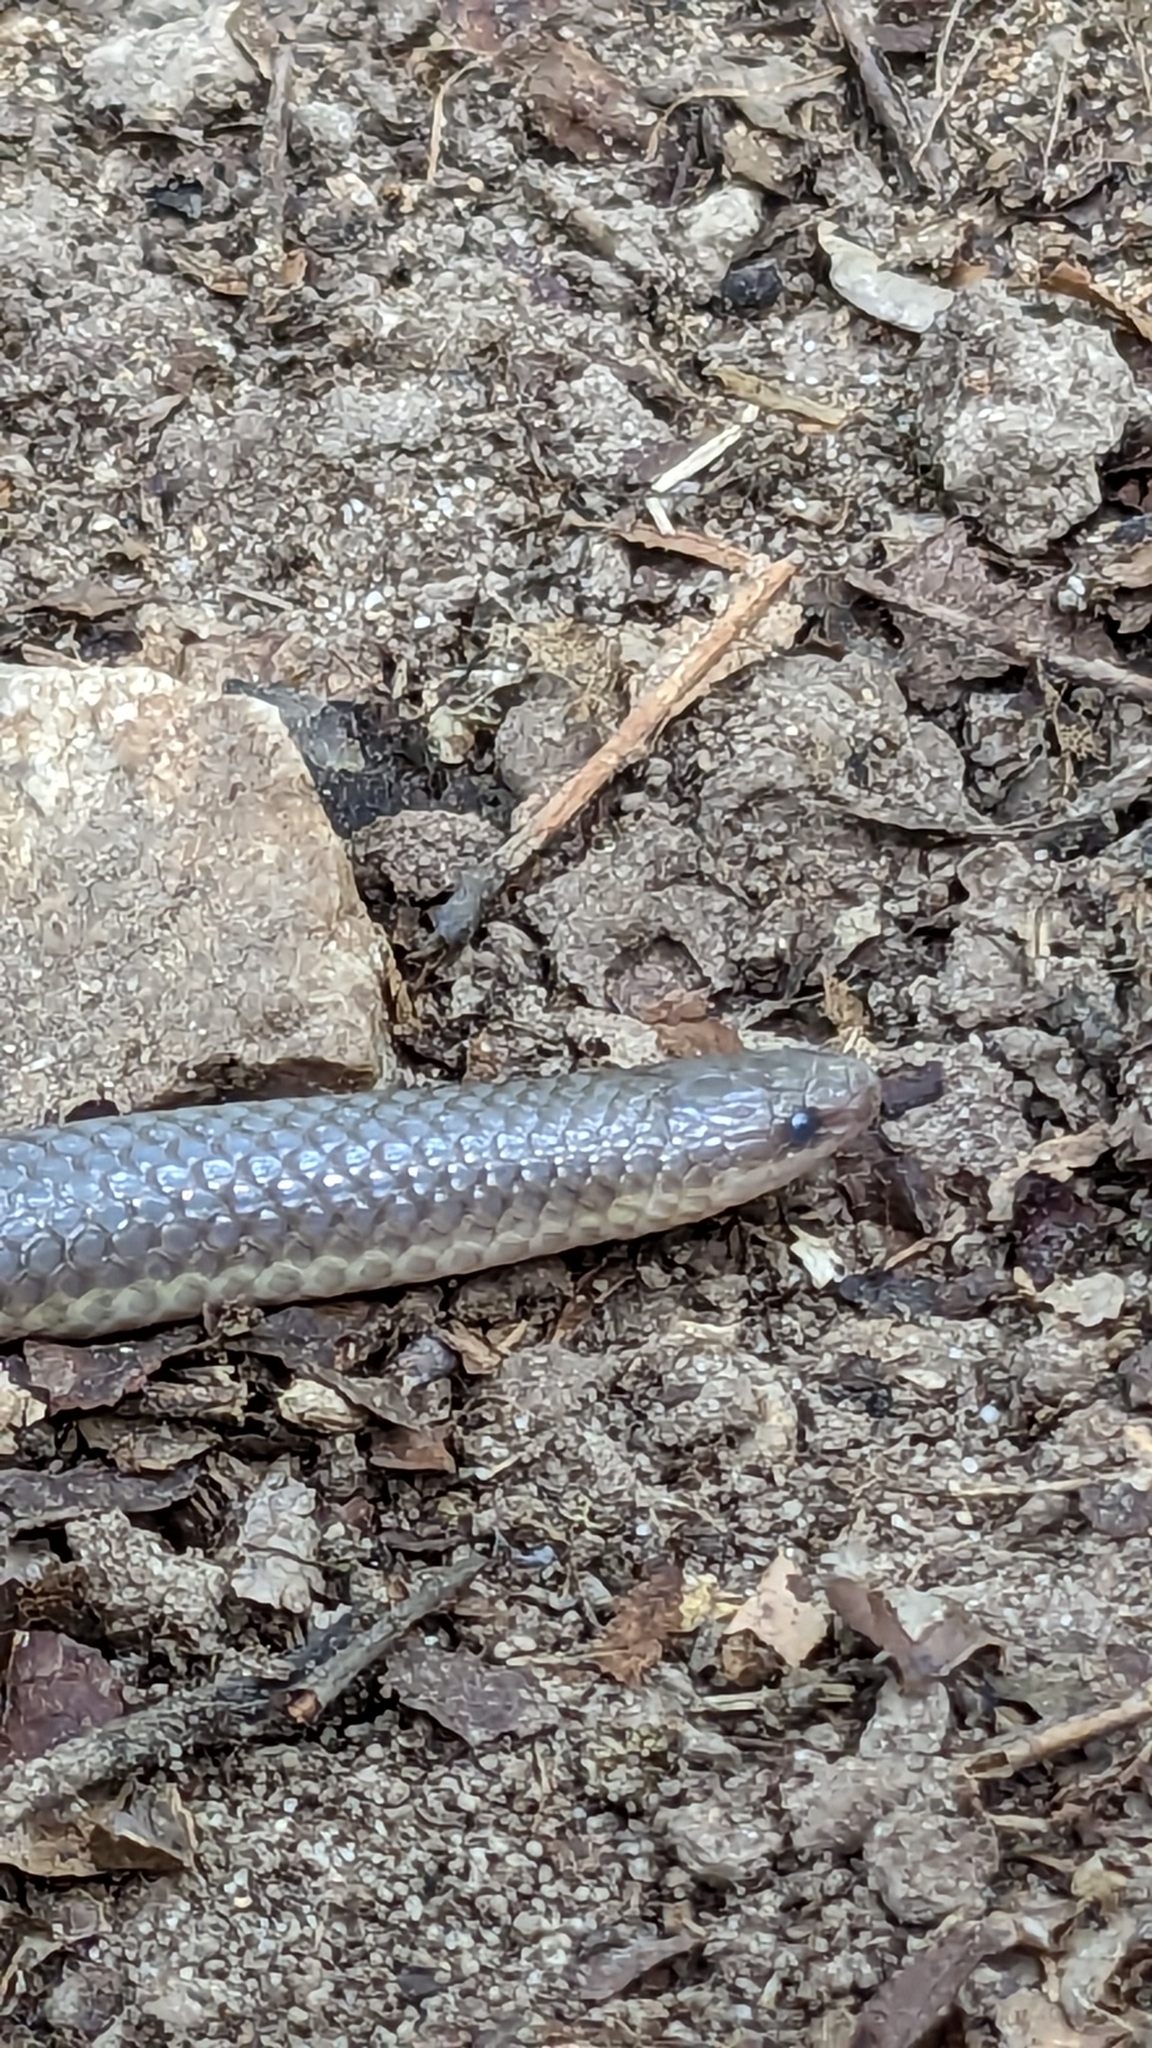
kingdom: Animalia
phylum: Chordata
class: Squamata
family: Colubridae
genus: Carphophis
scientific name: Carphophis amoenus
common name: Eastern worm snake
